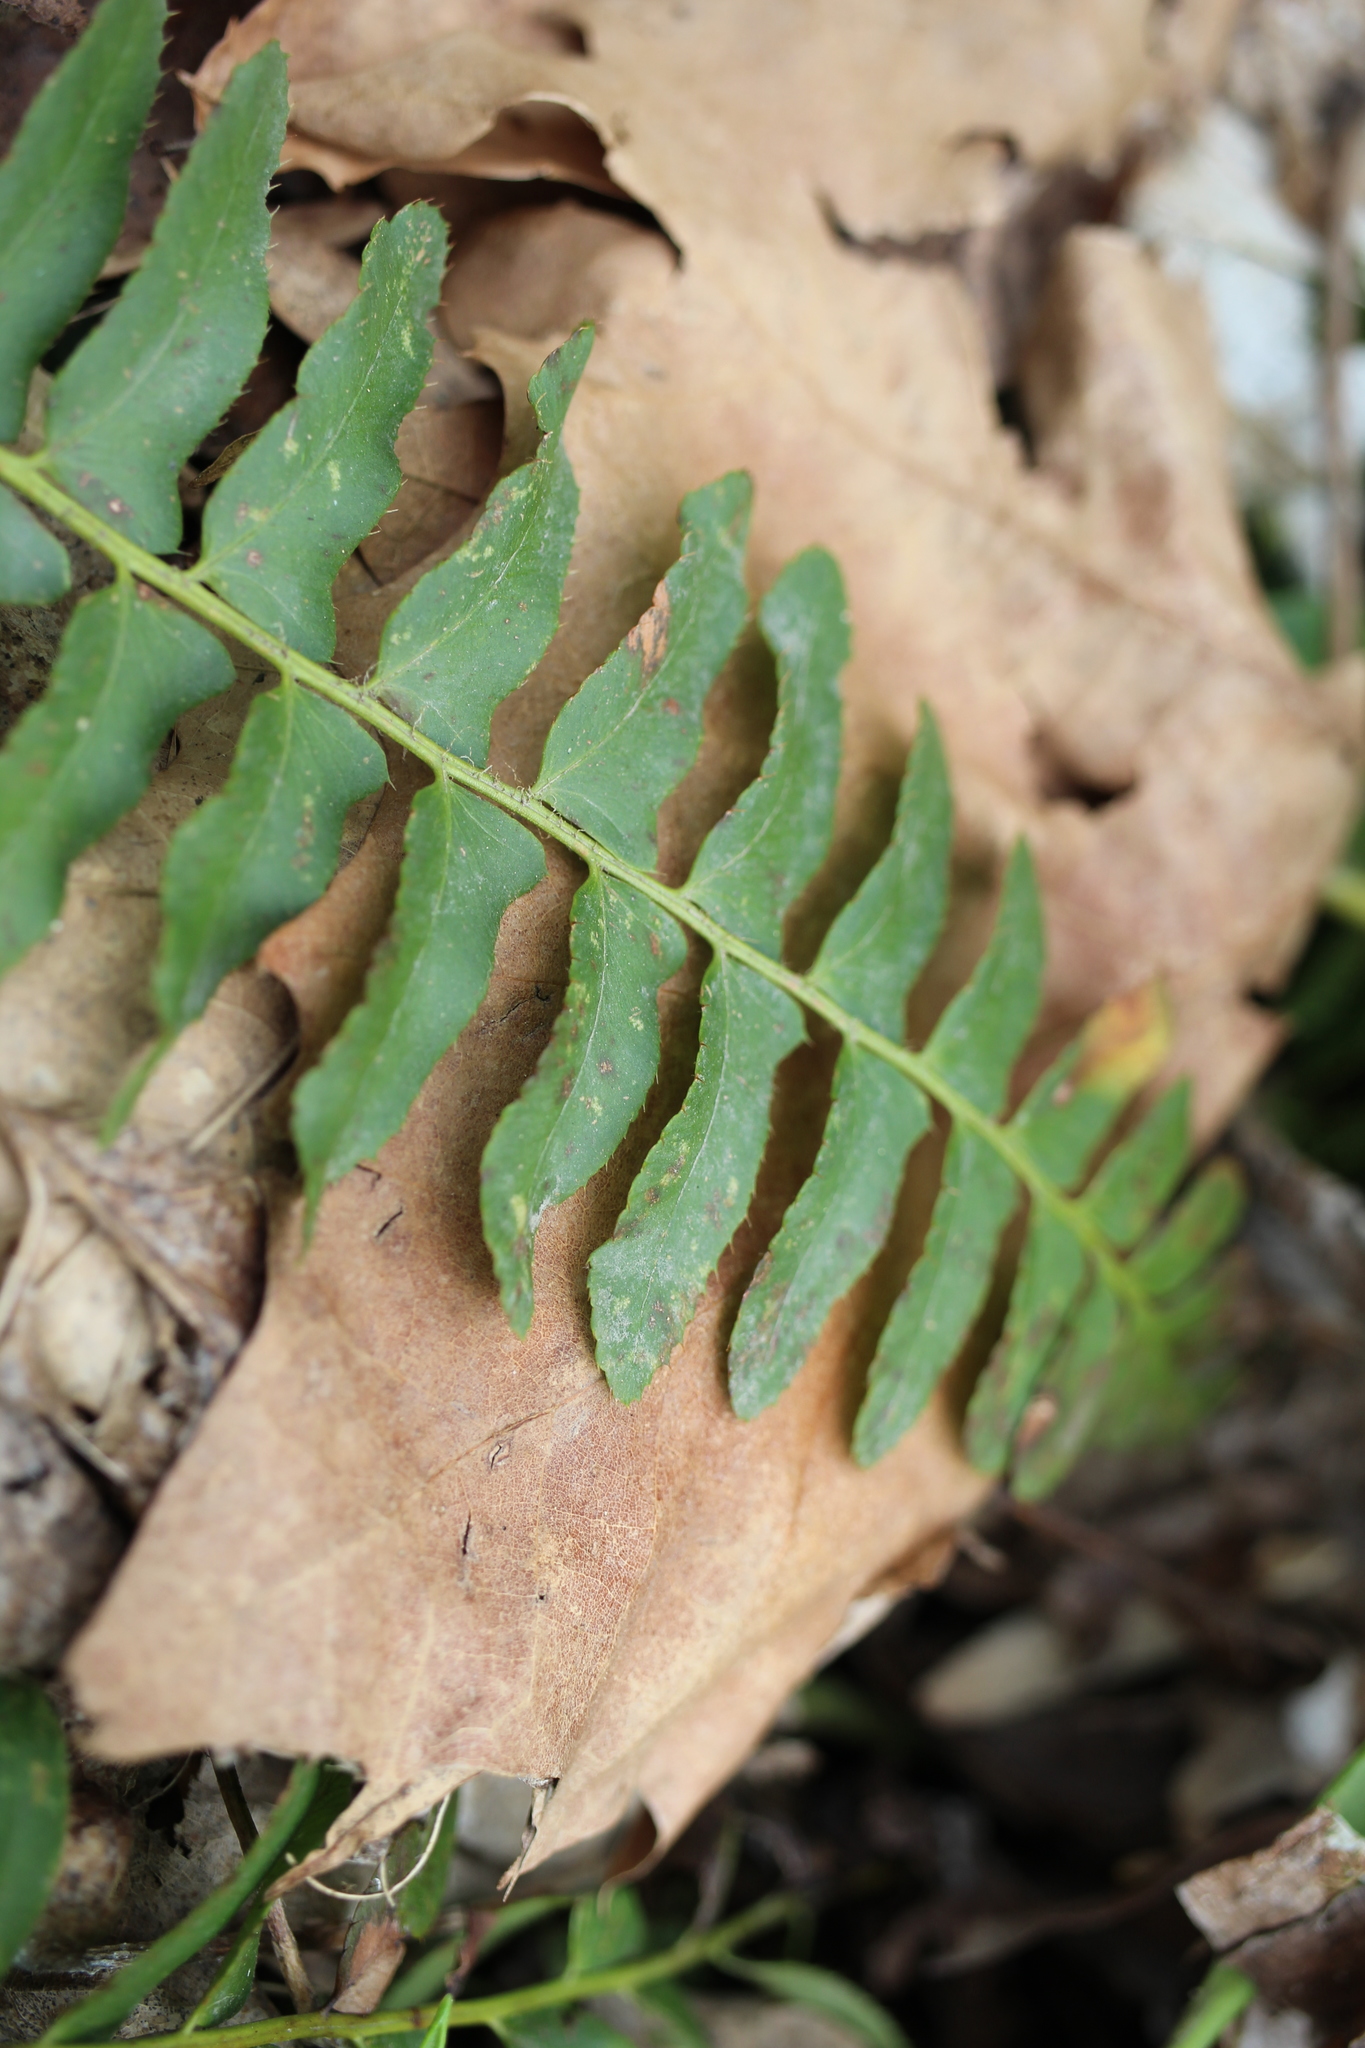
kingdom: Plantae
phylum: Tracheophyta
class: Polypodiopsida
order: Polypodiales
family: Dryopteridaceae
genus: Polystichum
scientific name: Polystichum acrostichoides
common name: Christmas fern
